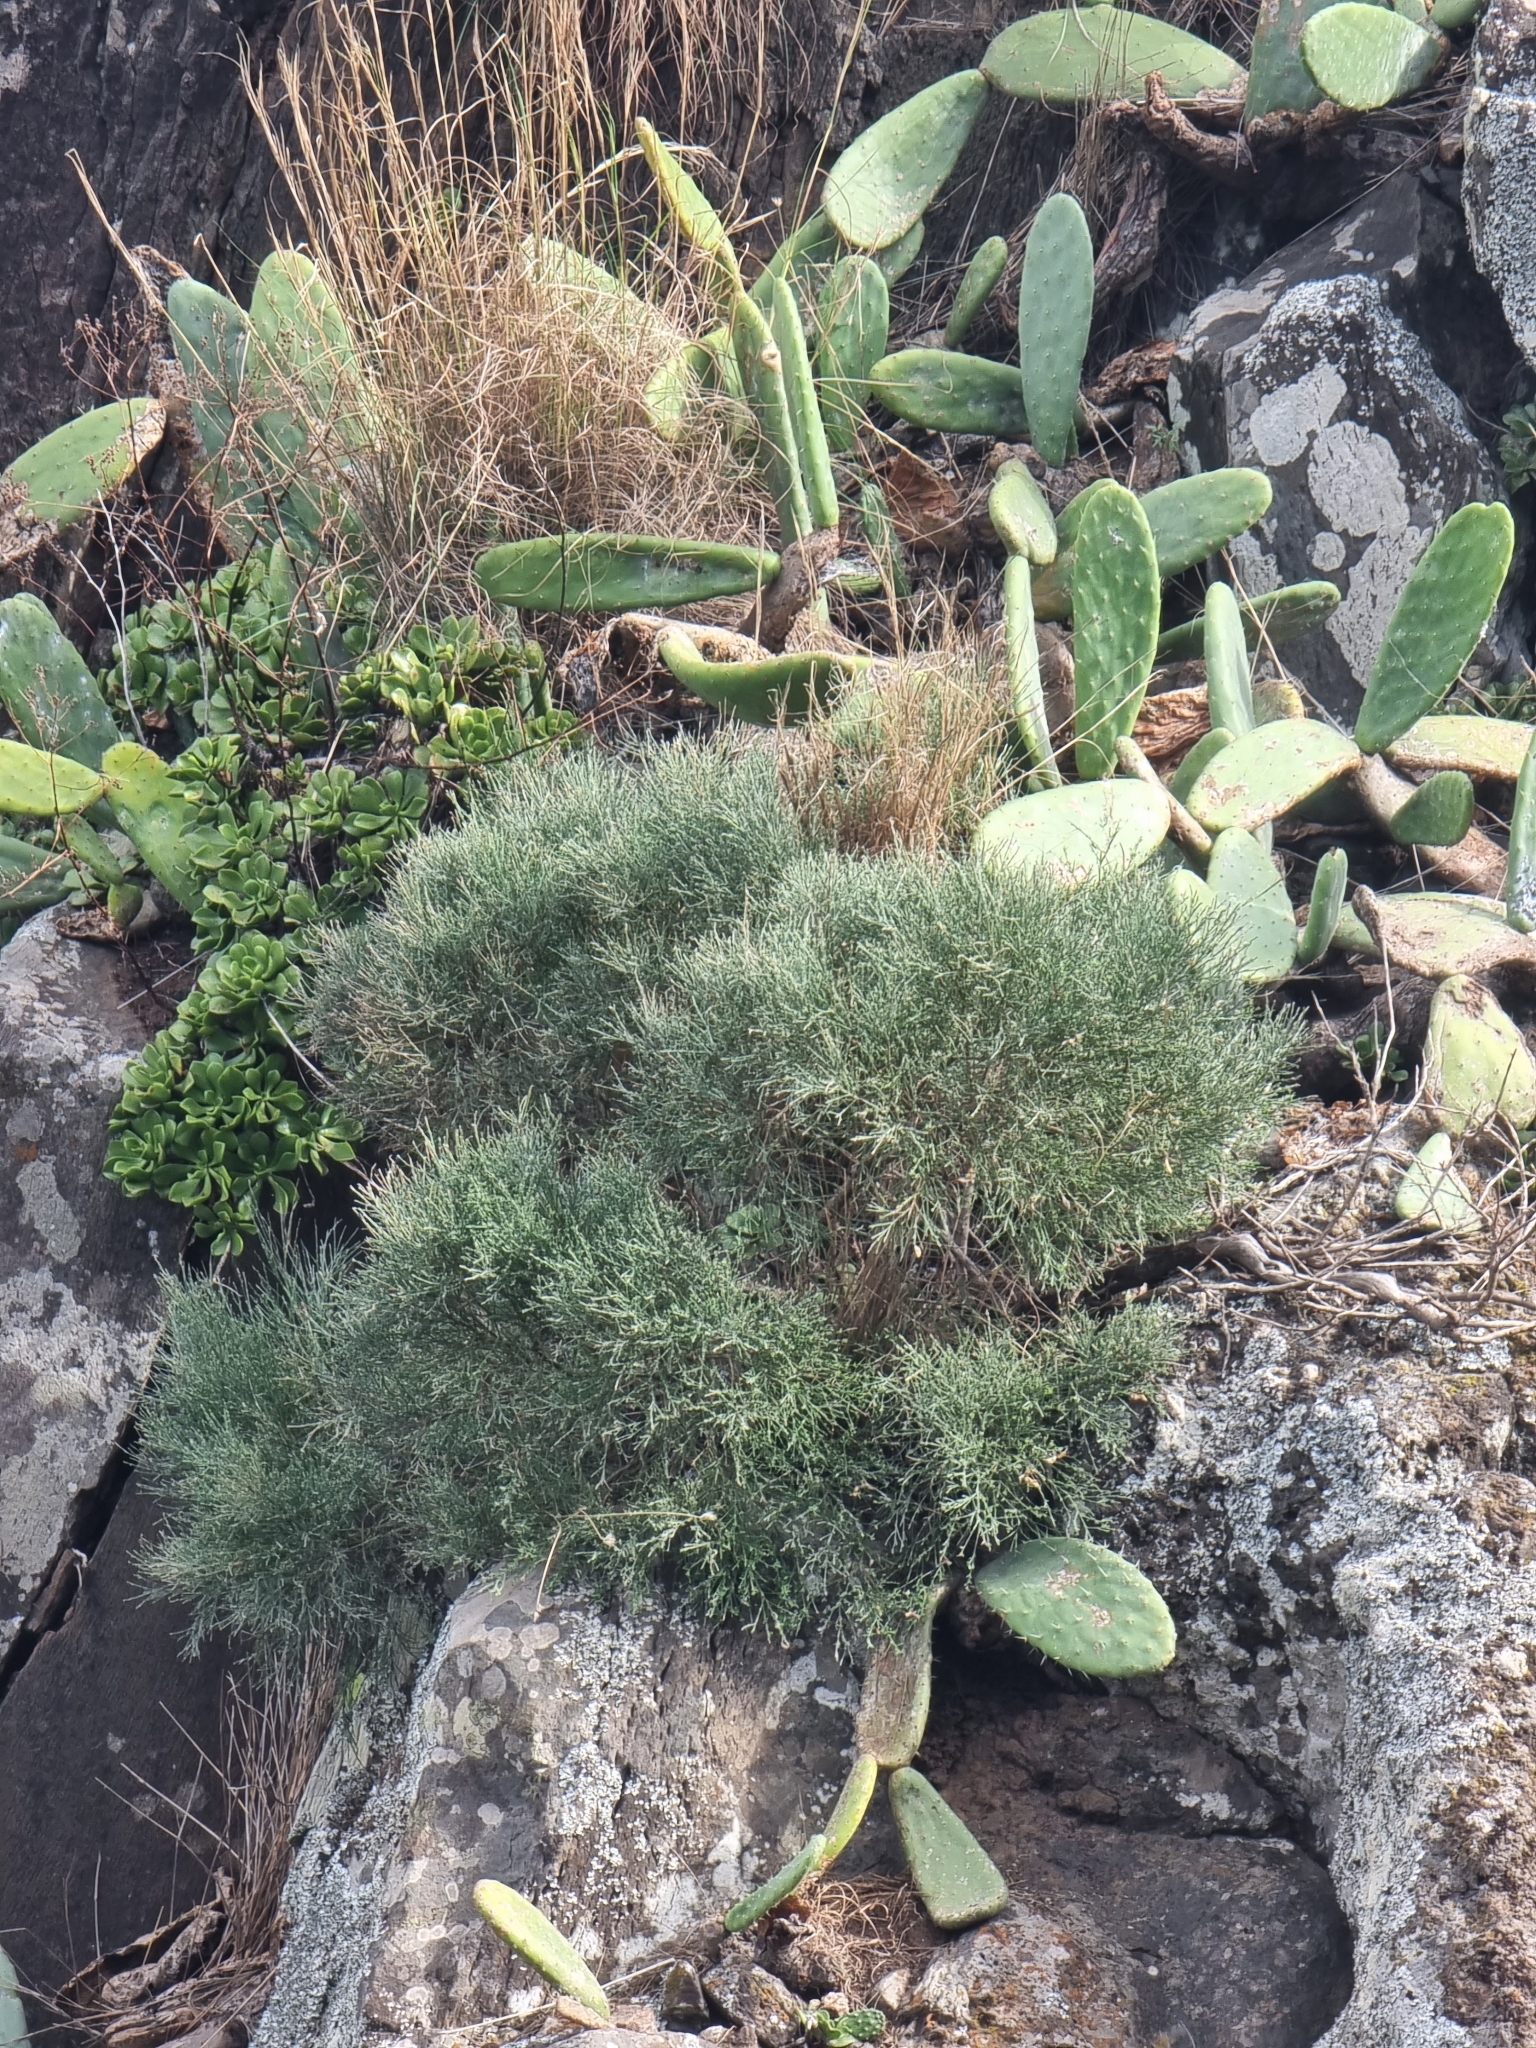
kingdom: Plantae
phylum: Tracheophyta
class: Magnoliopsida
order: Fabales
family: Fabaceae
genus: Genista
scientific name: Genista tenera
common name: Madeira broom
